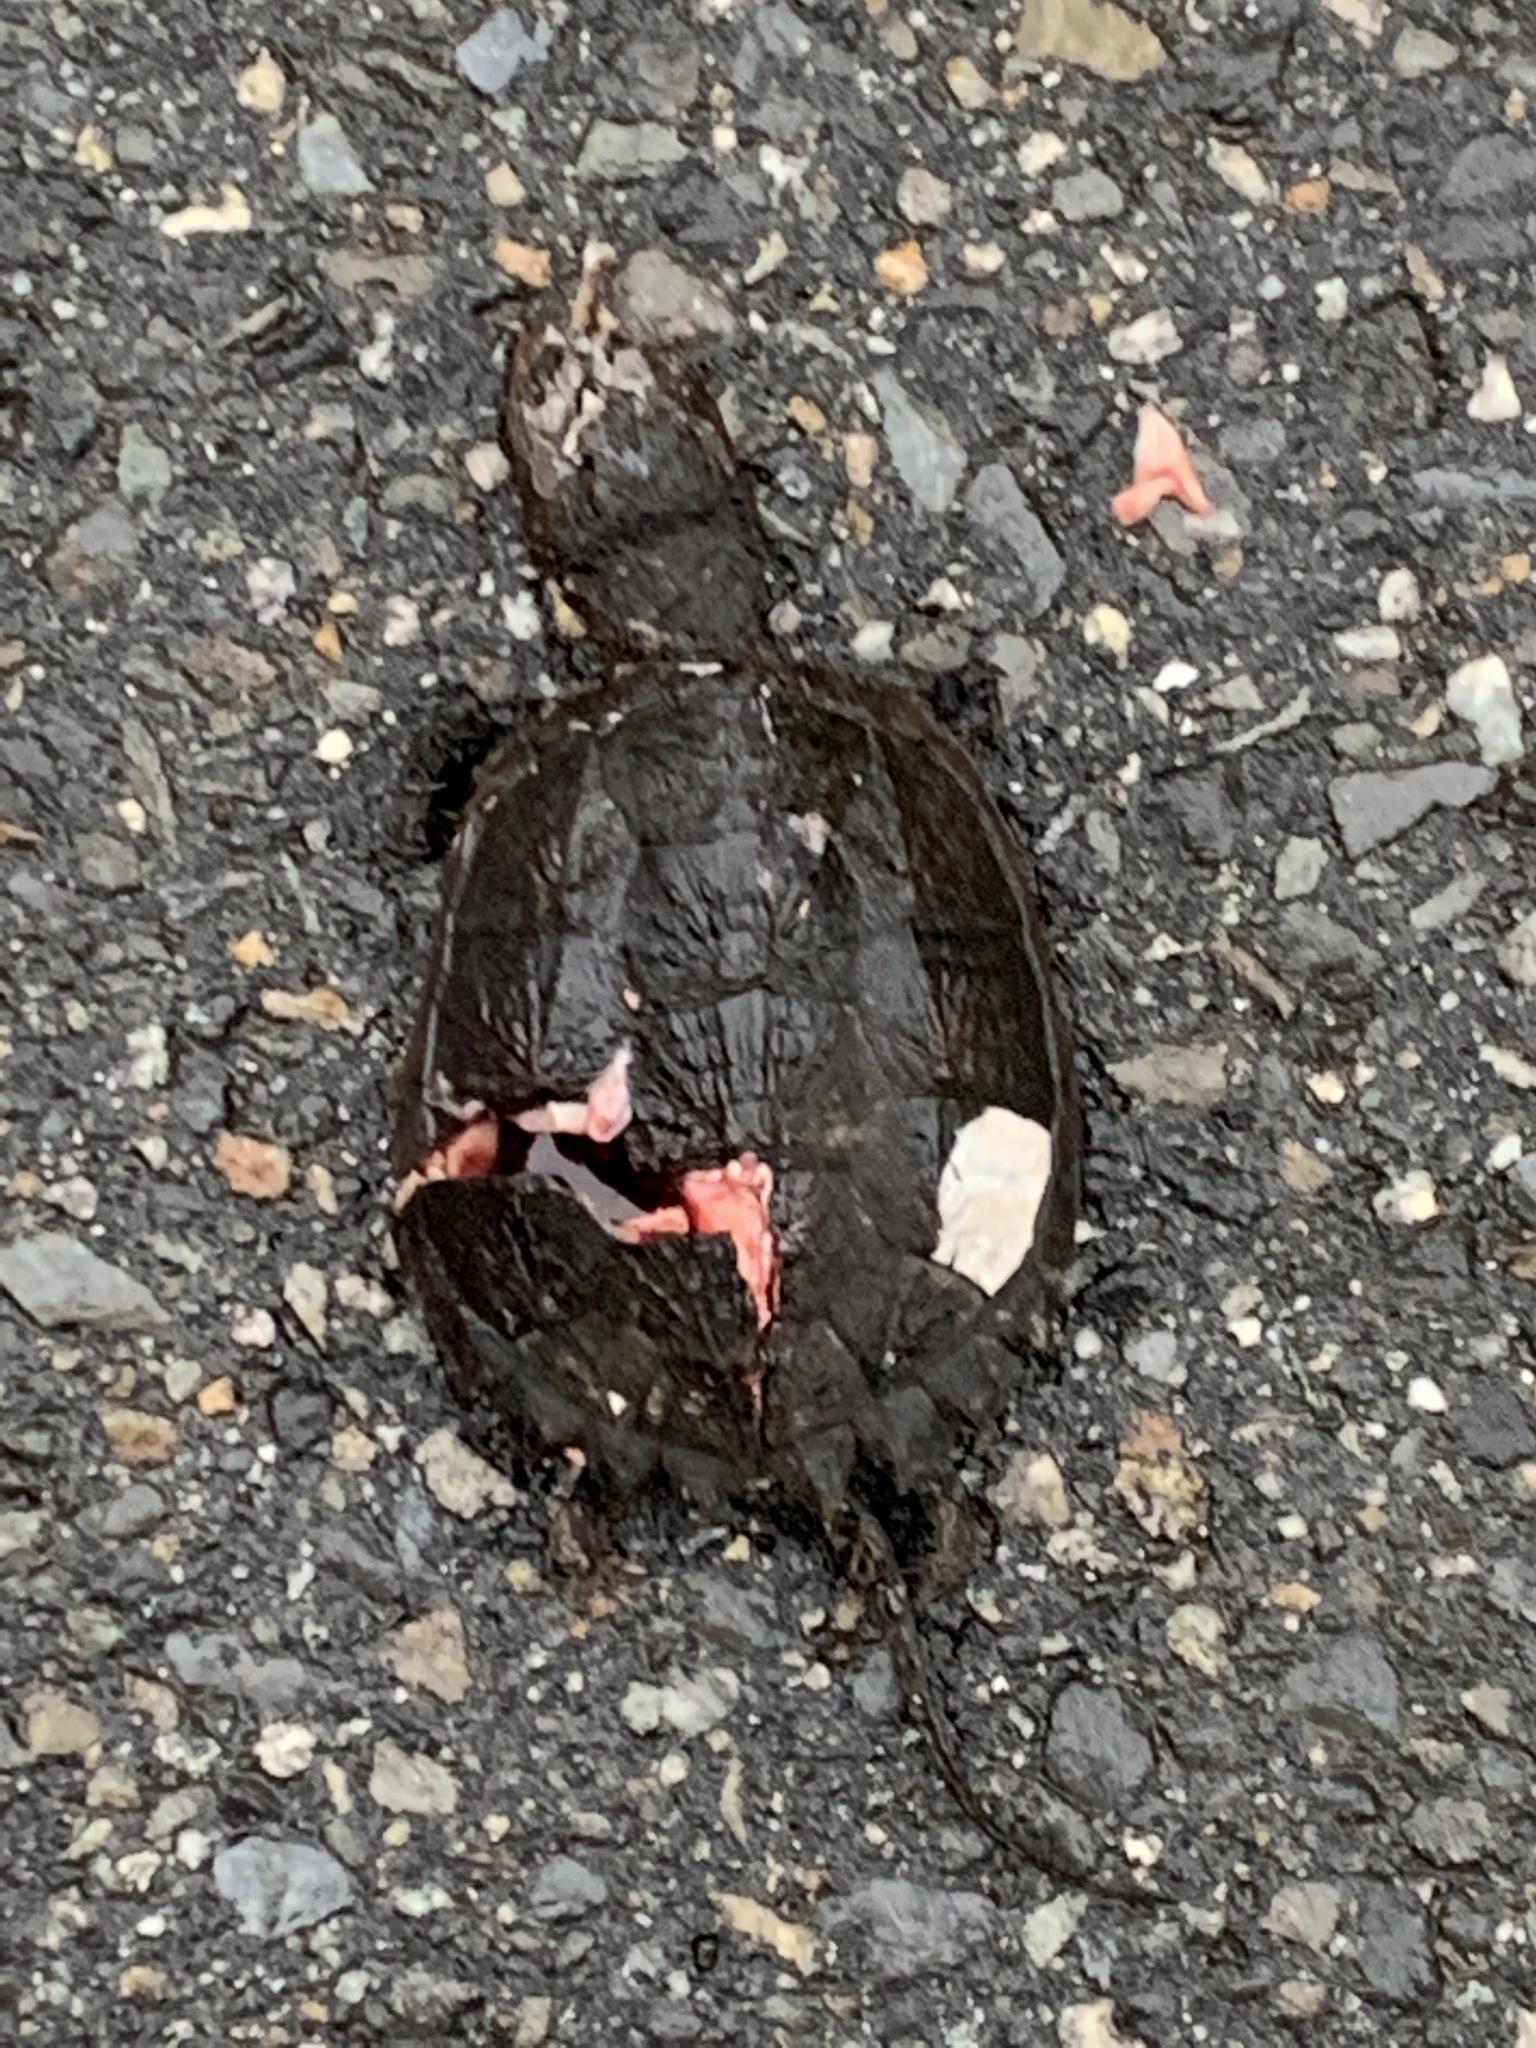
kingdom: Animalia
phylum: Chordata
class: Testudines
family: Chelydridae
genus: Chelydra
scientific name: Chelydra serpentina
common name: Common snapping turtle
